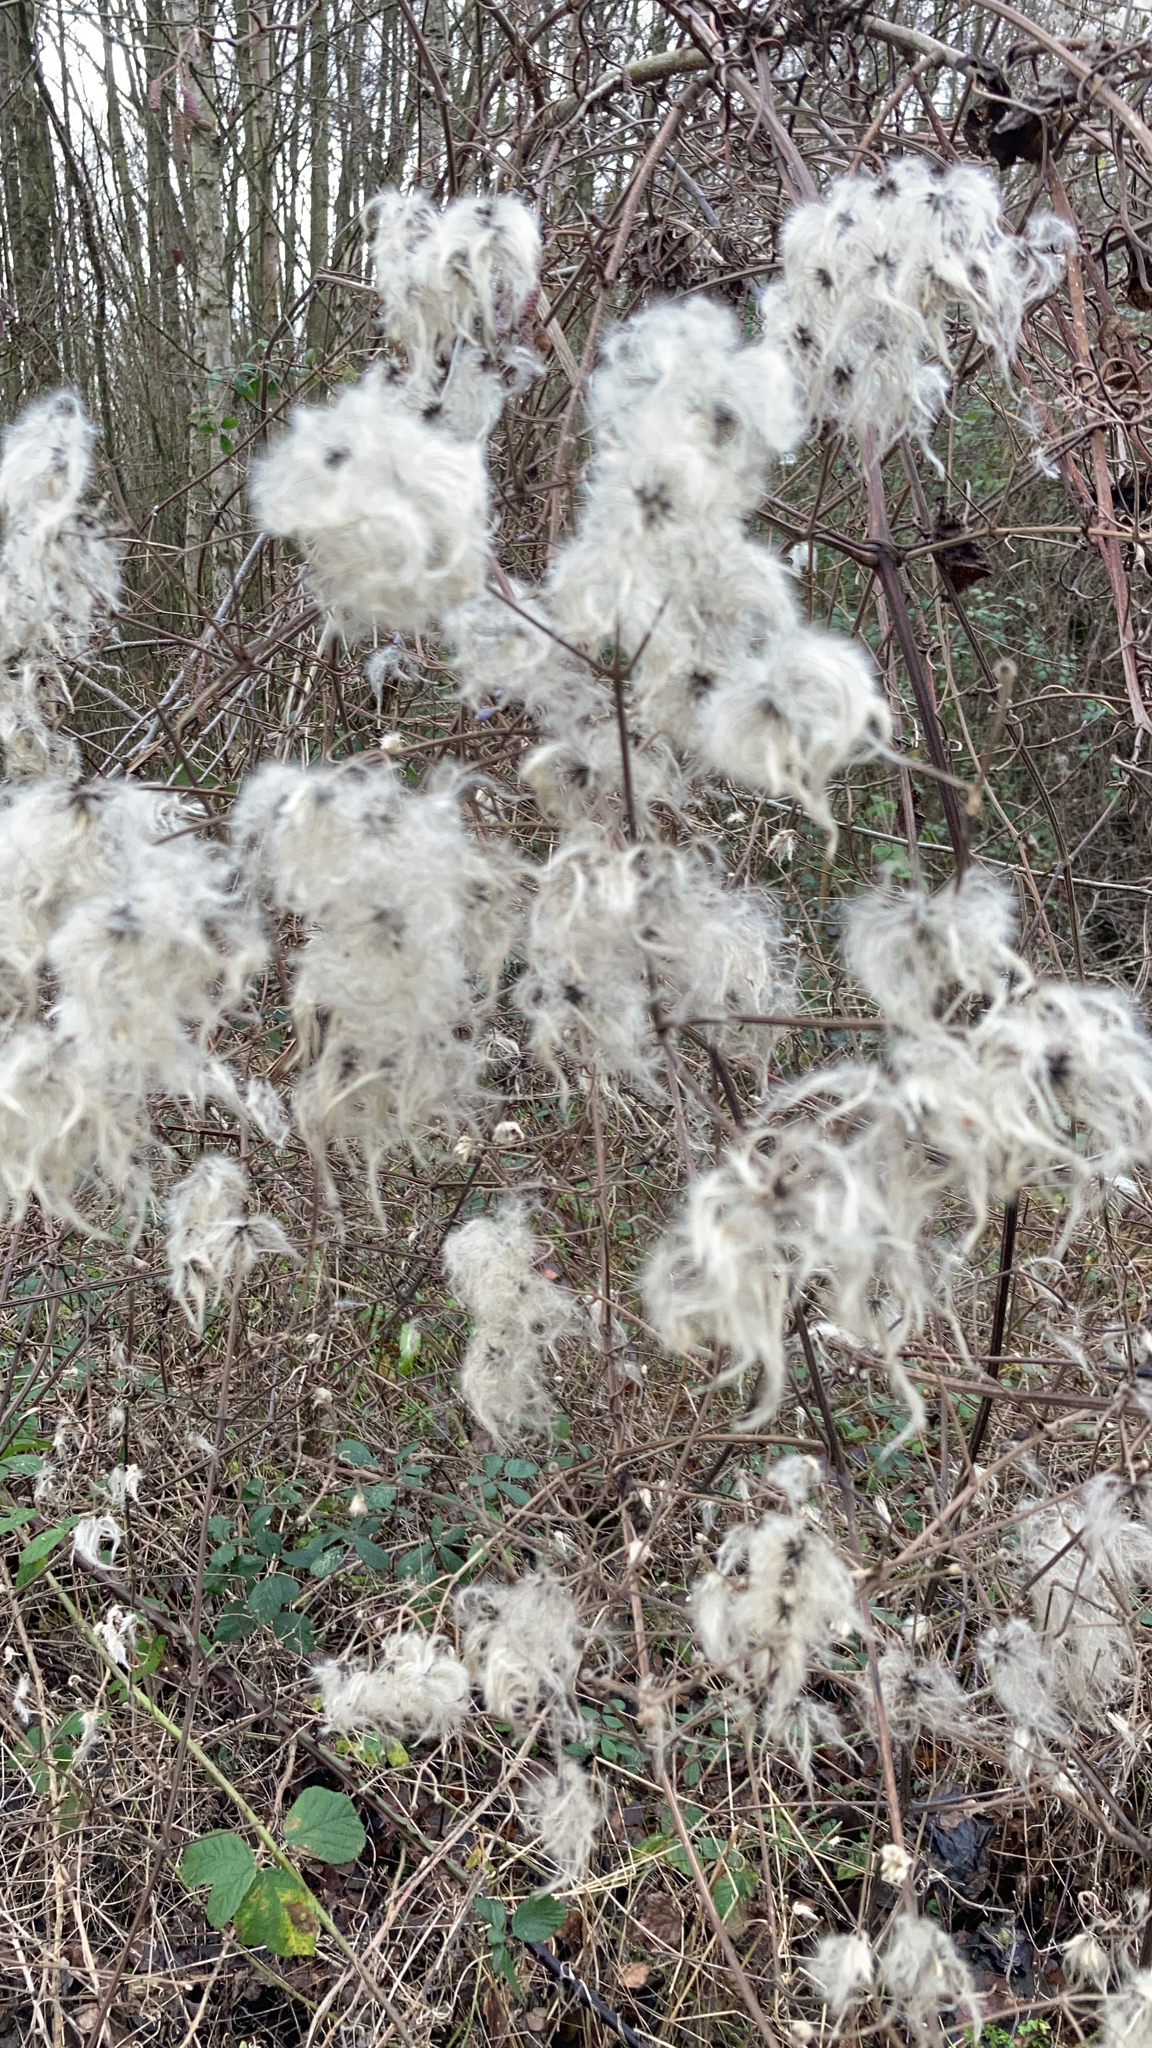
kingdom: Plantae
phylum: Tracheophyta
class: Magnoliopsida
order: Ranunculales
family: Ranunculaceae
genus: Clematis
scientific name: Clematis vitalba
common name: Evergreen clematis
